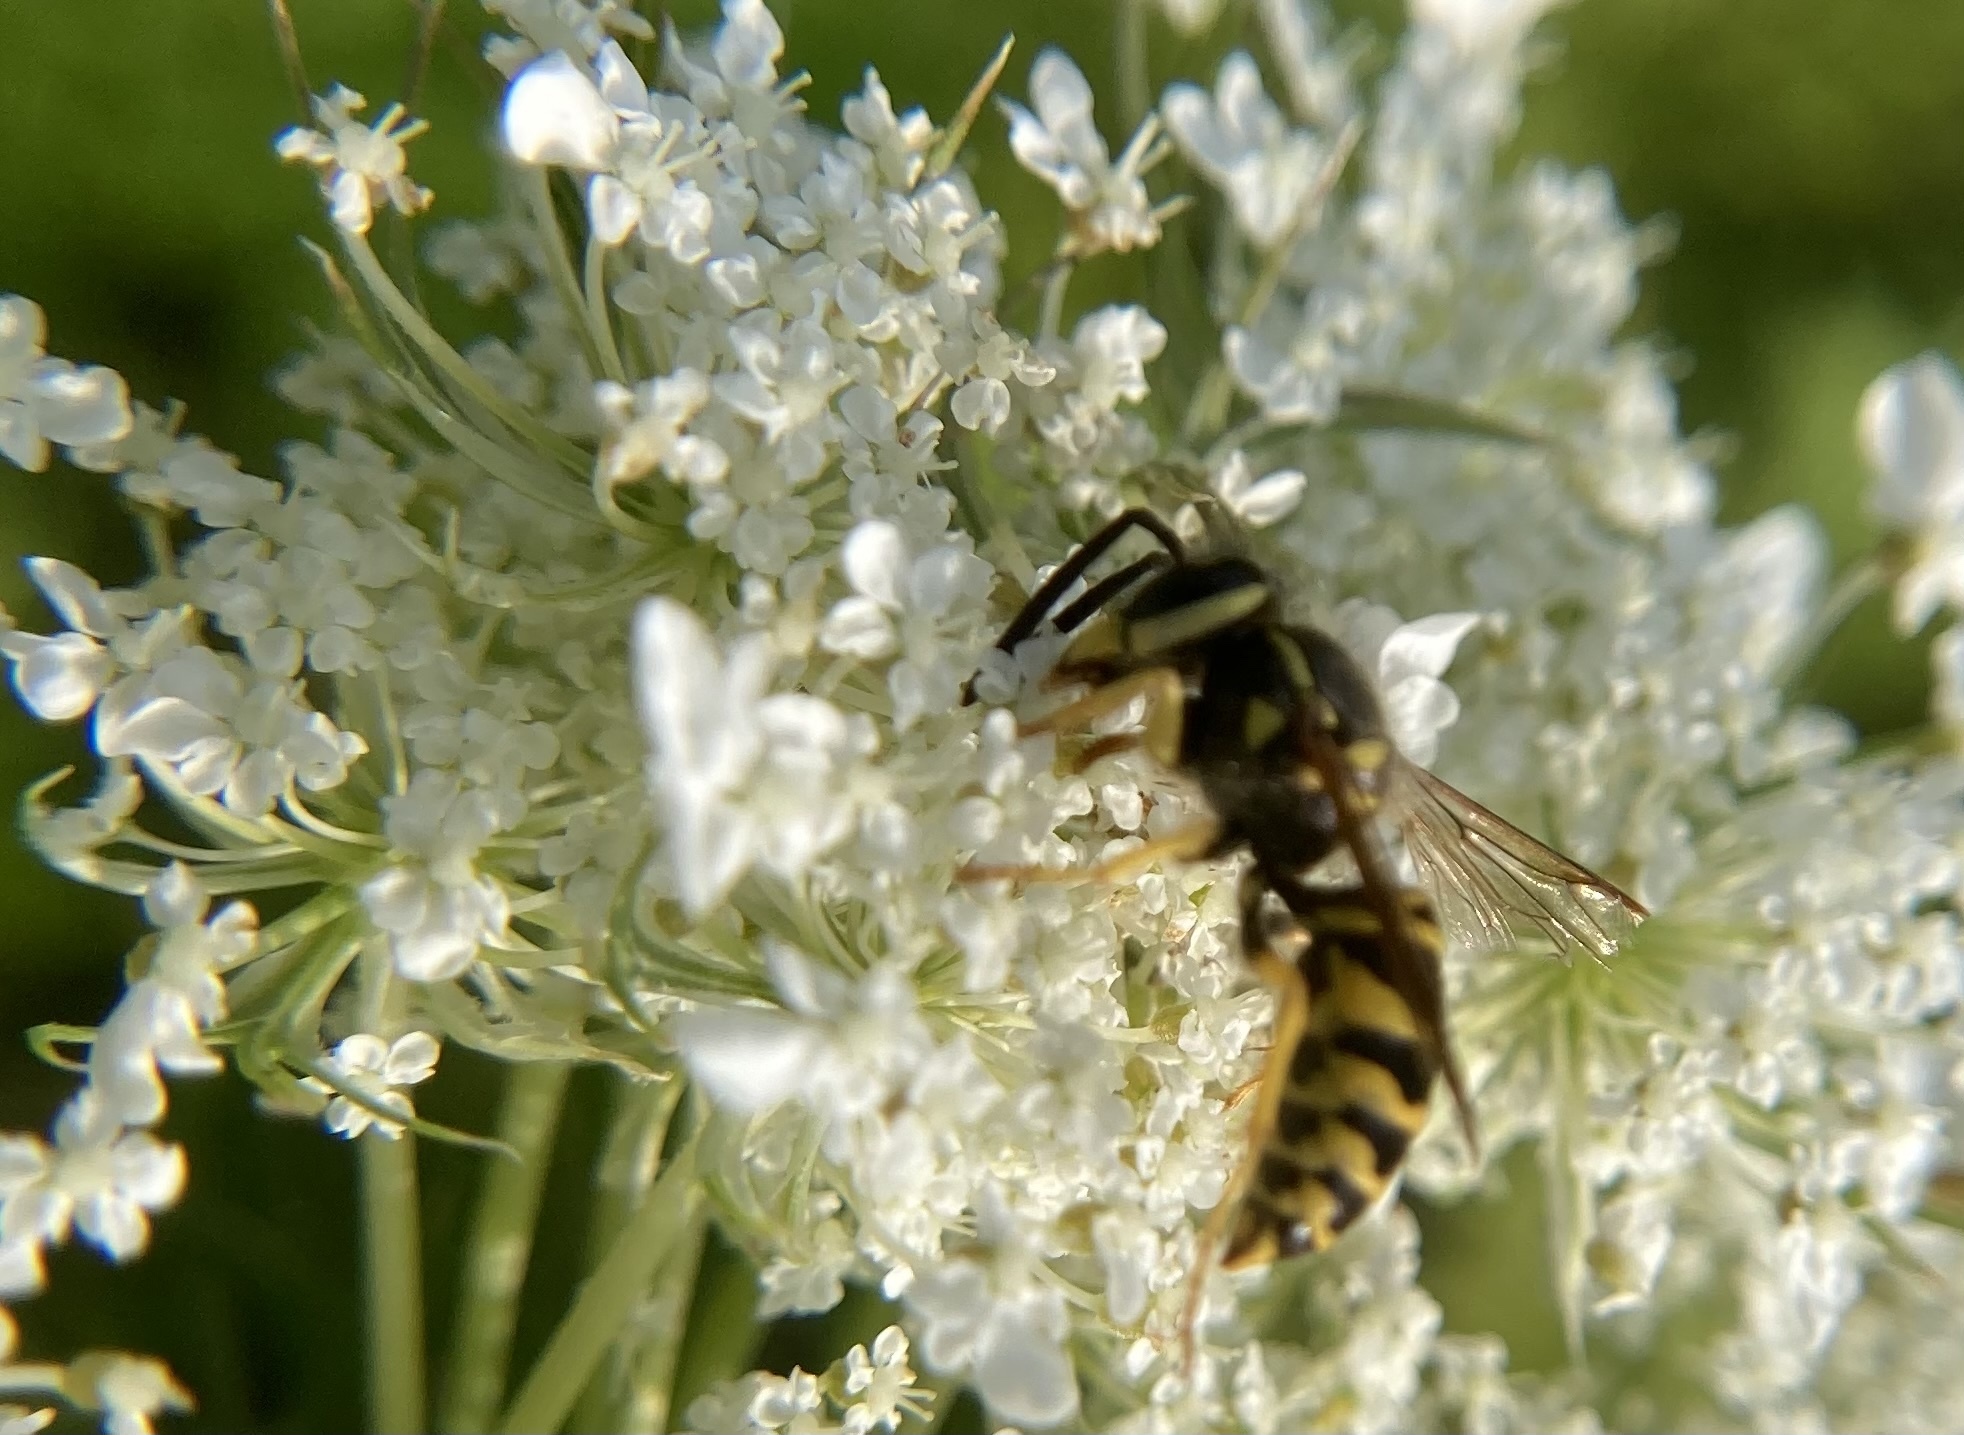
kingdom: Animalia
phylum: Arthropoda
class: Insecta
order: Hymenoptera
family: Vespidae
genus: Vespula
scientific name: Vespula maculifrons
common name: Eastern yellowjacket
